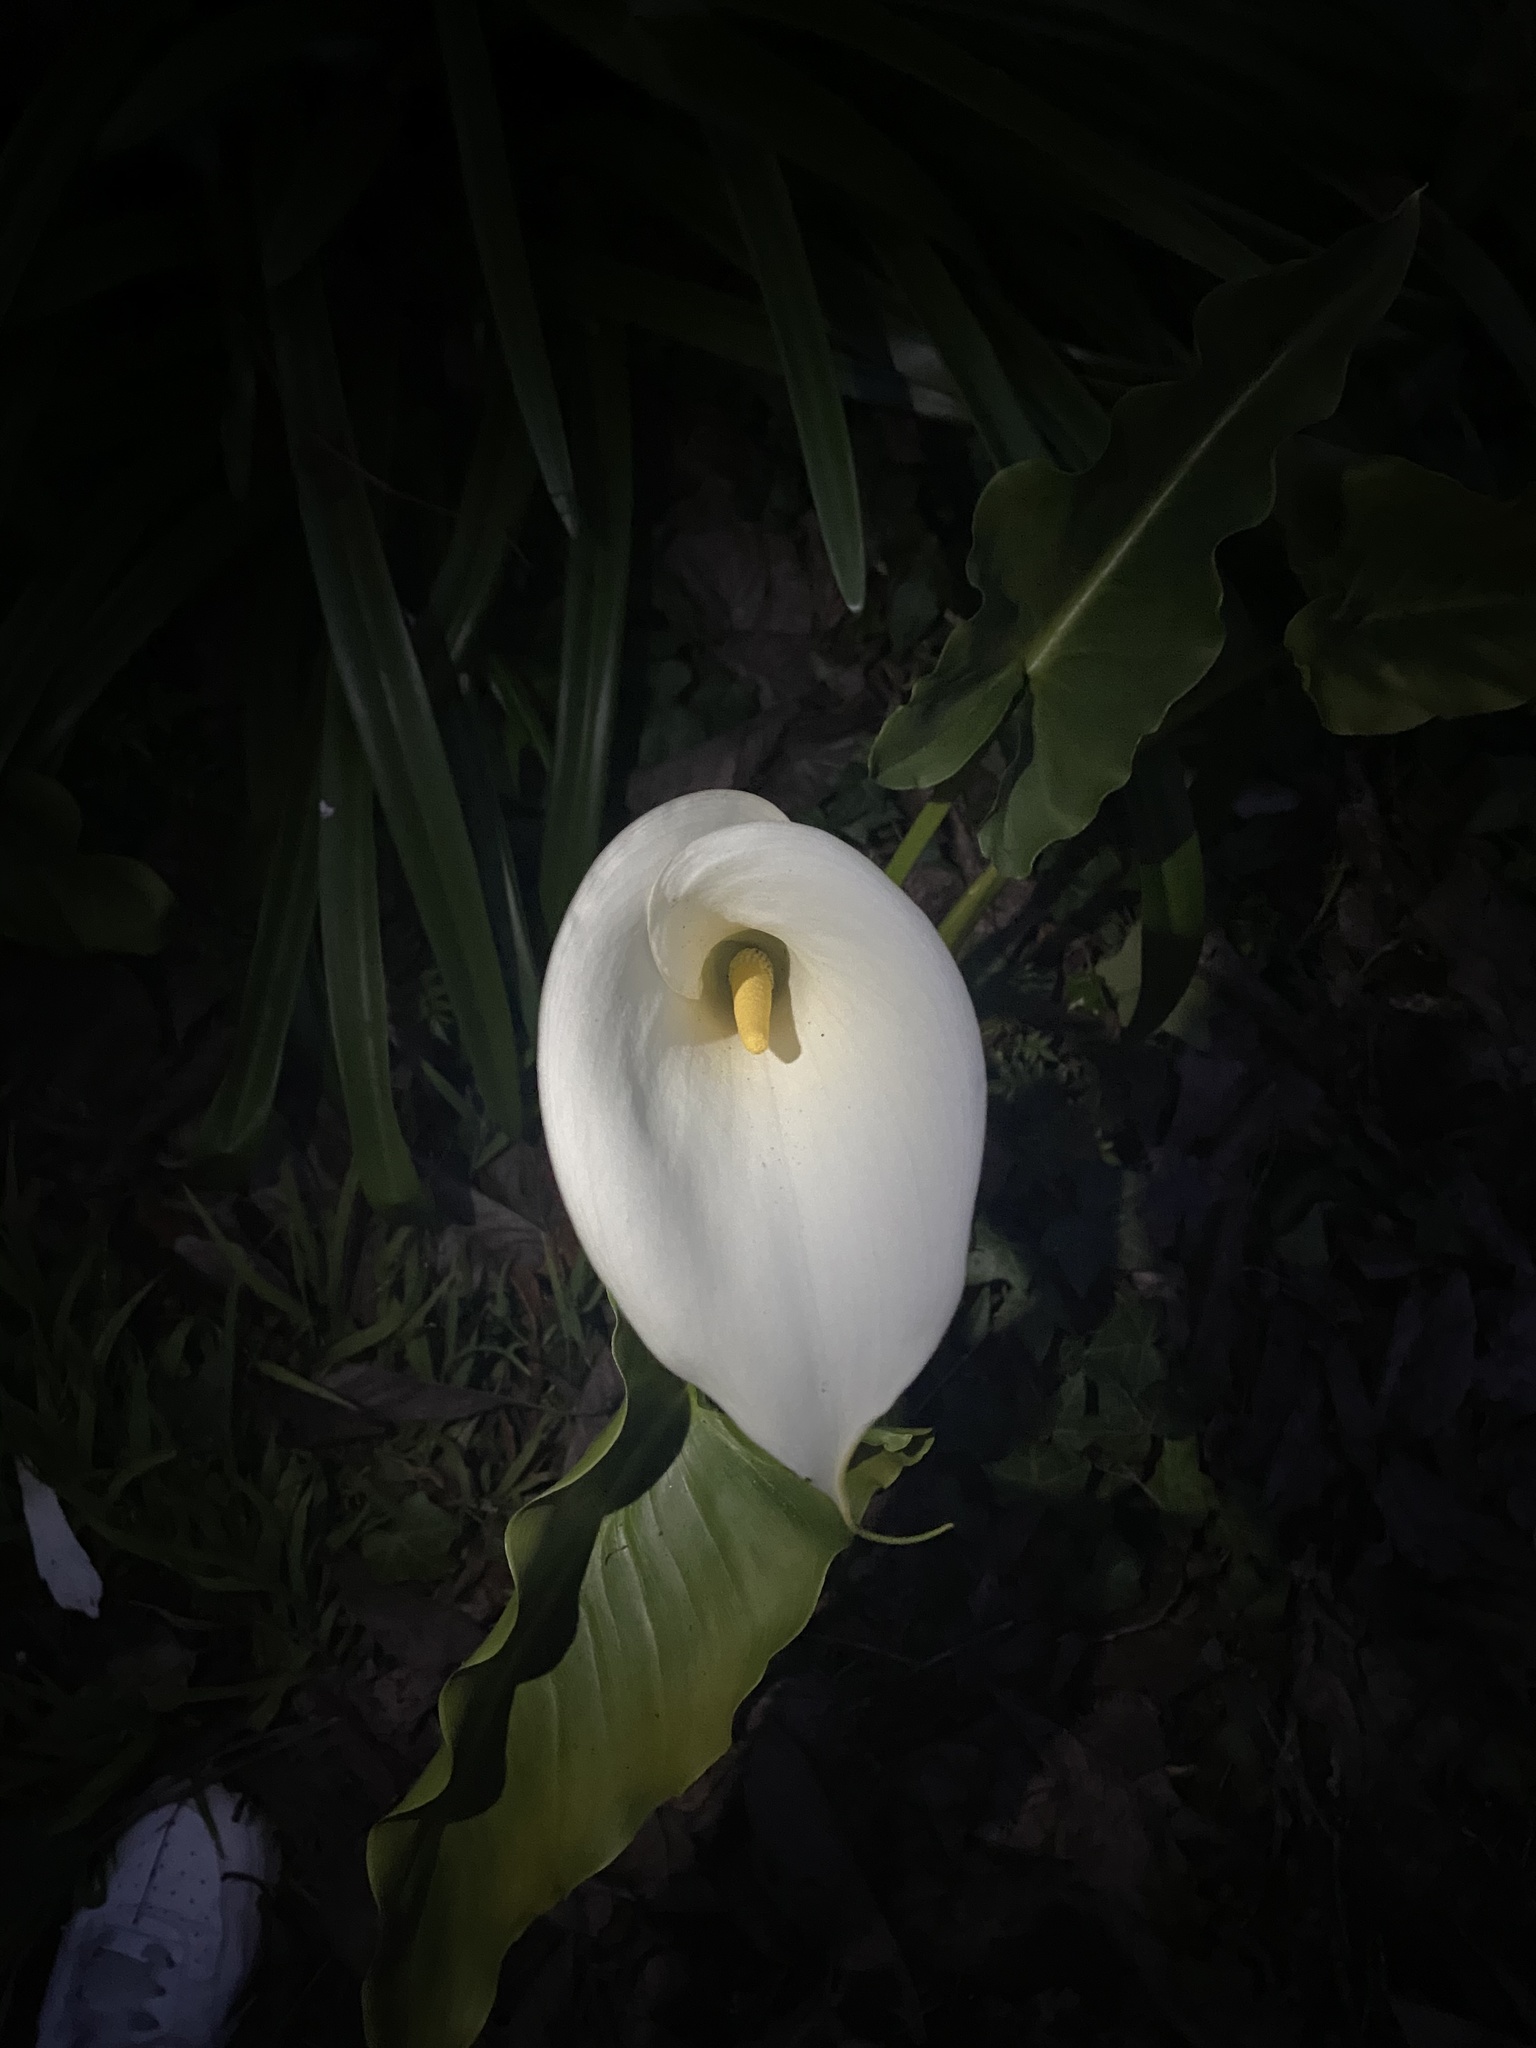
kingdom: Plantae
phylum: Tracheophyta
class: Liliopsida
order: Alismatales
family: Araceae
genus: Zantedeschia
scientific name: Zantedeschia aethiopica
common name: Altar-lily
